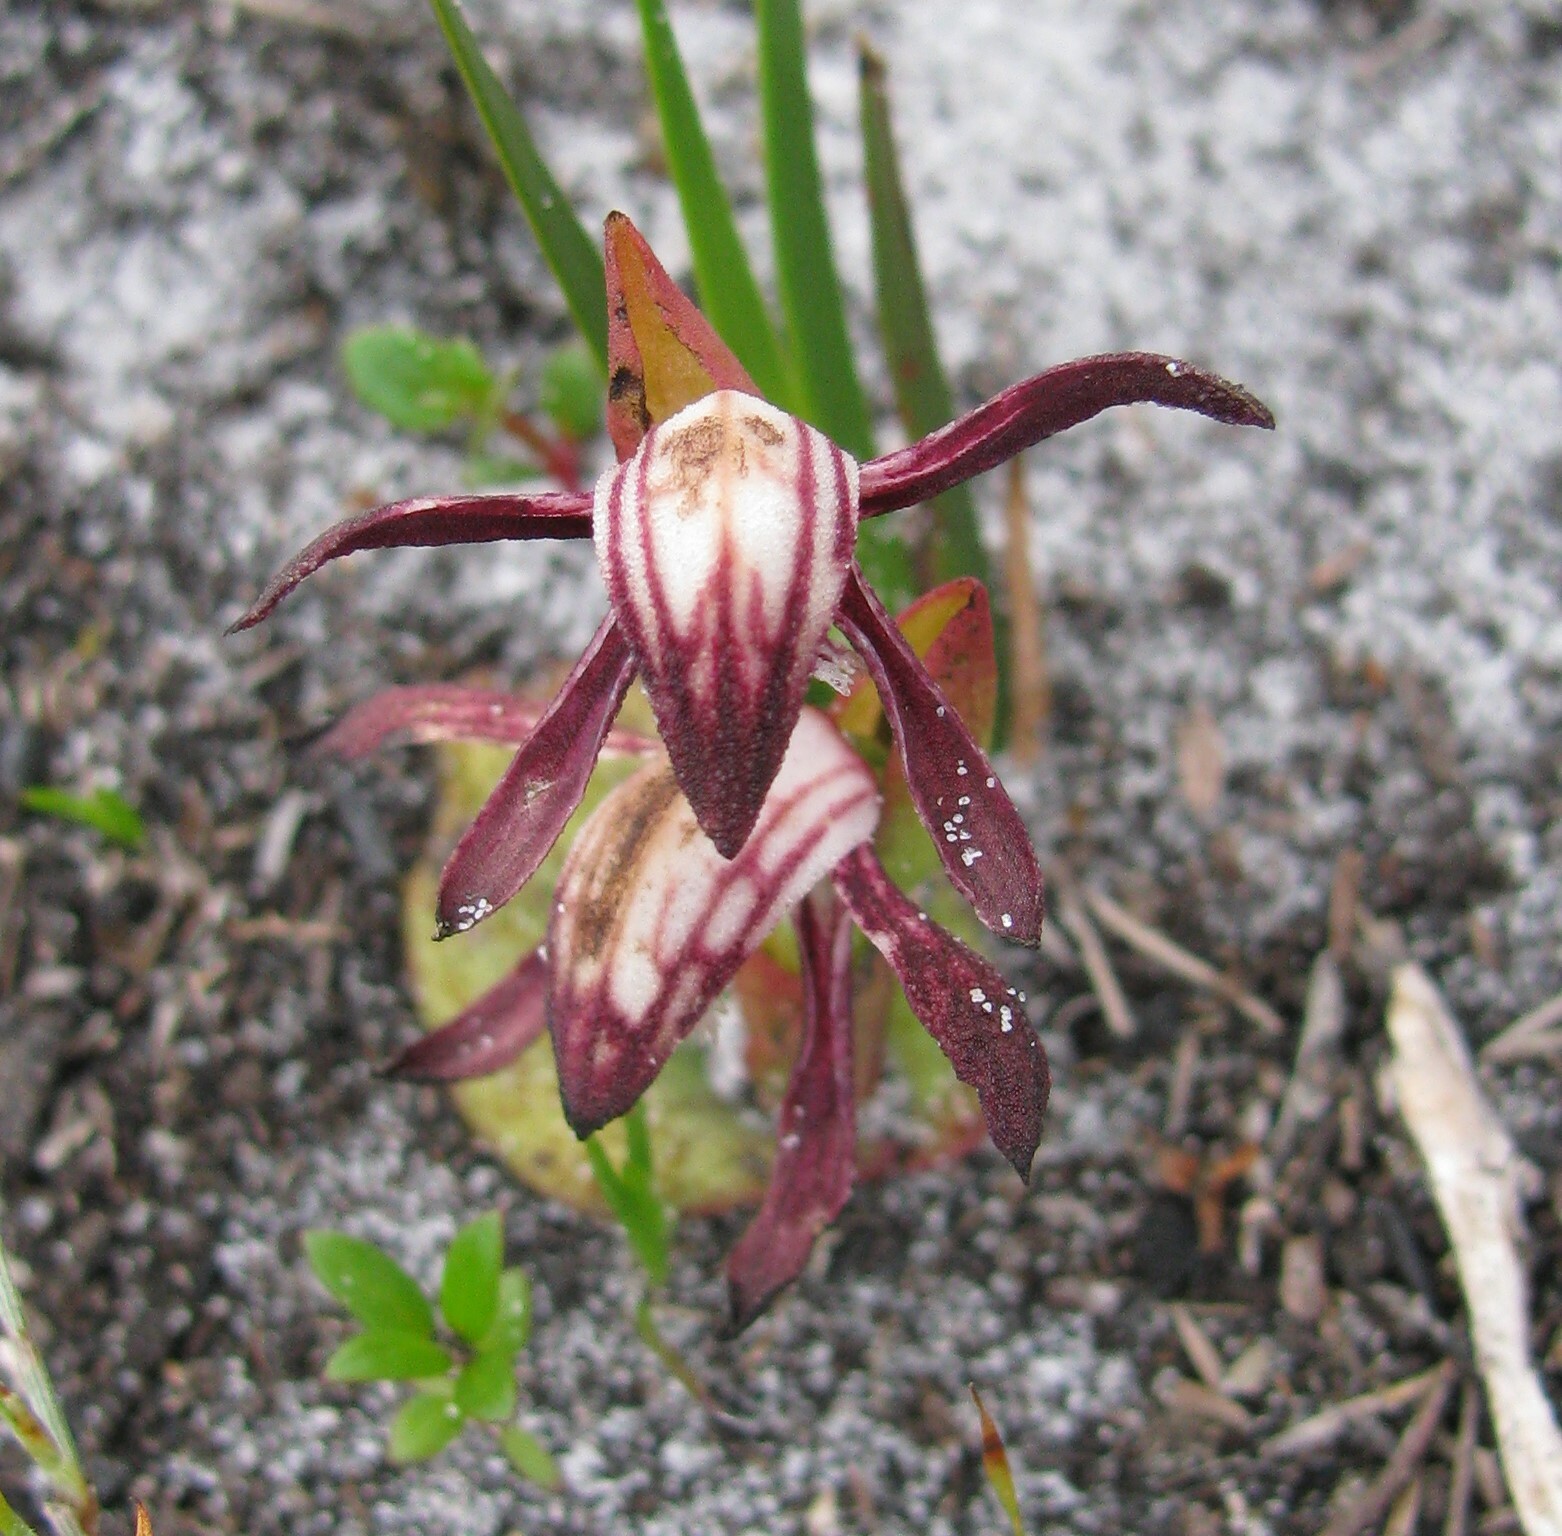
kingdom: Plantae
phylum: Tracheophyta
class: Liliopsida
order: Asparagales
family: Orchidaceae
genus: Pyrorchis
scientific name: Pyrorchis nigricans
